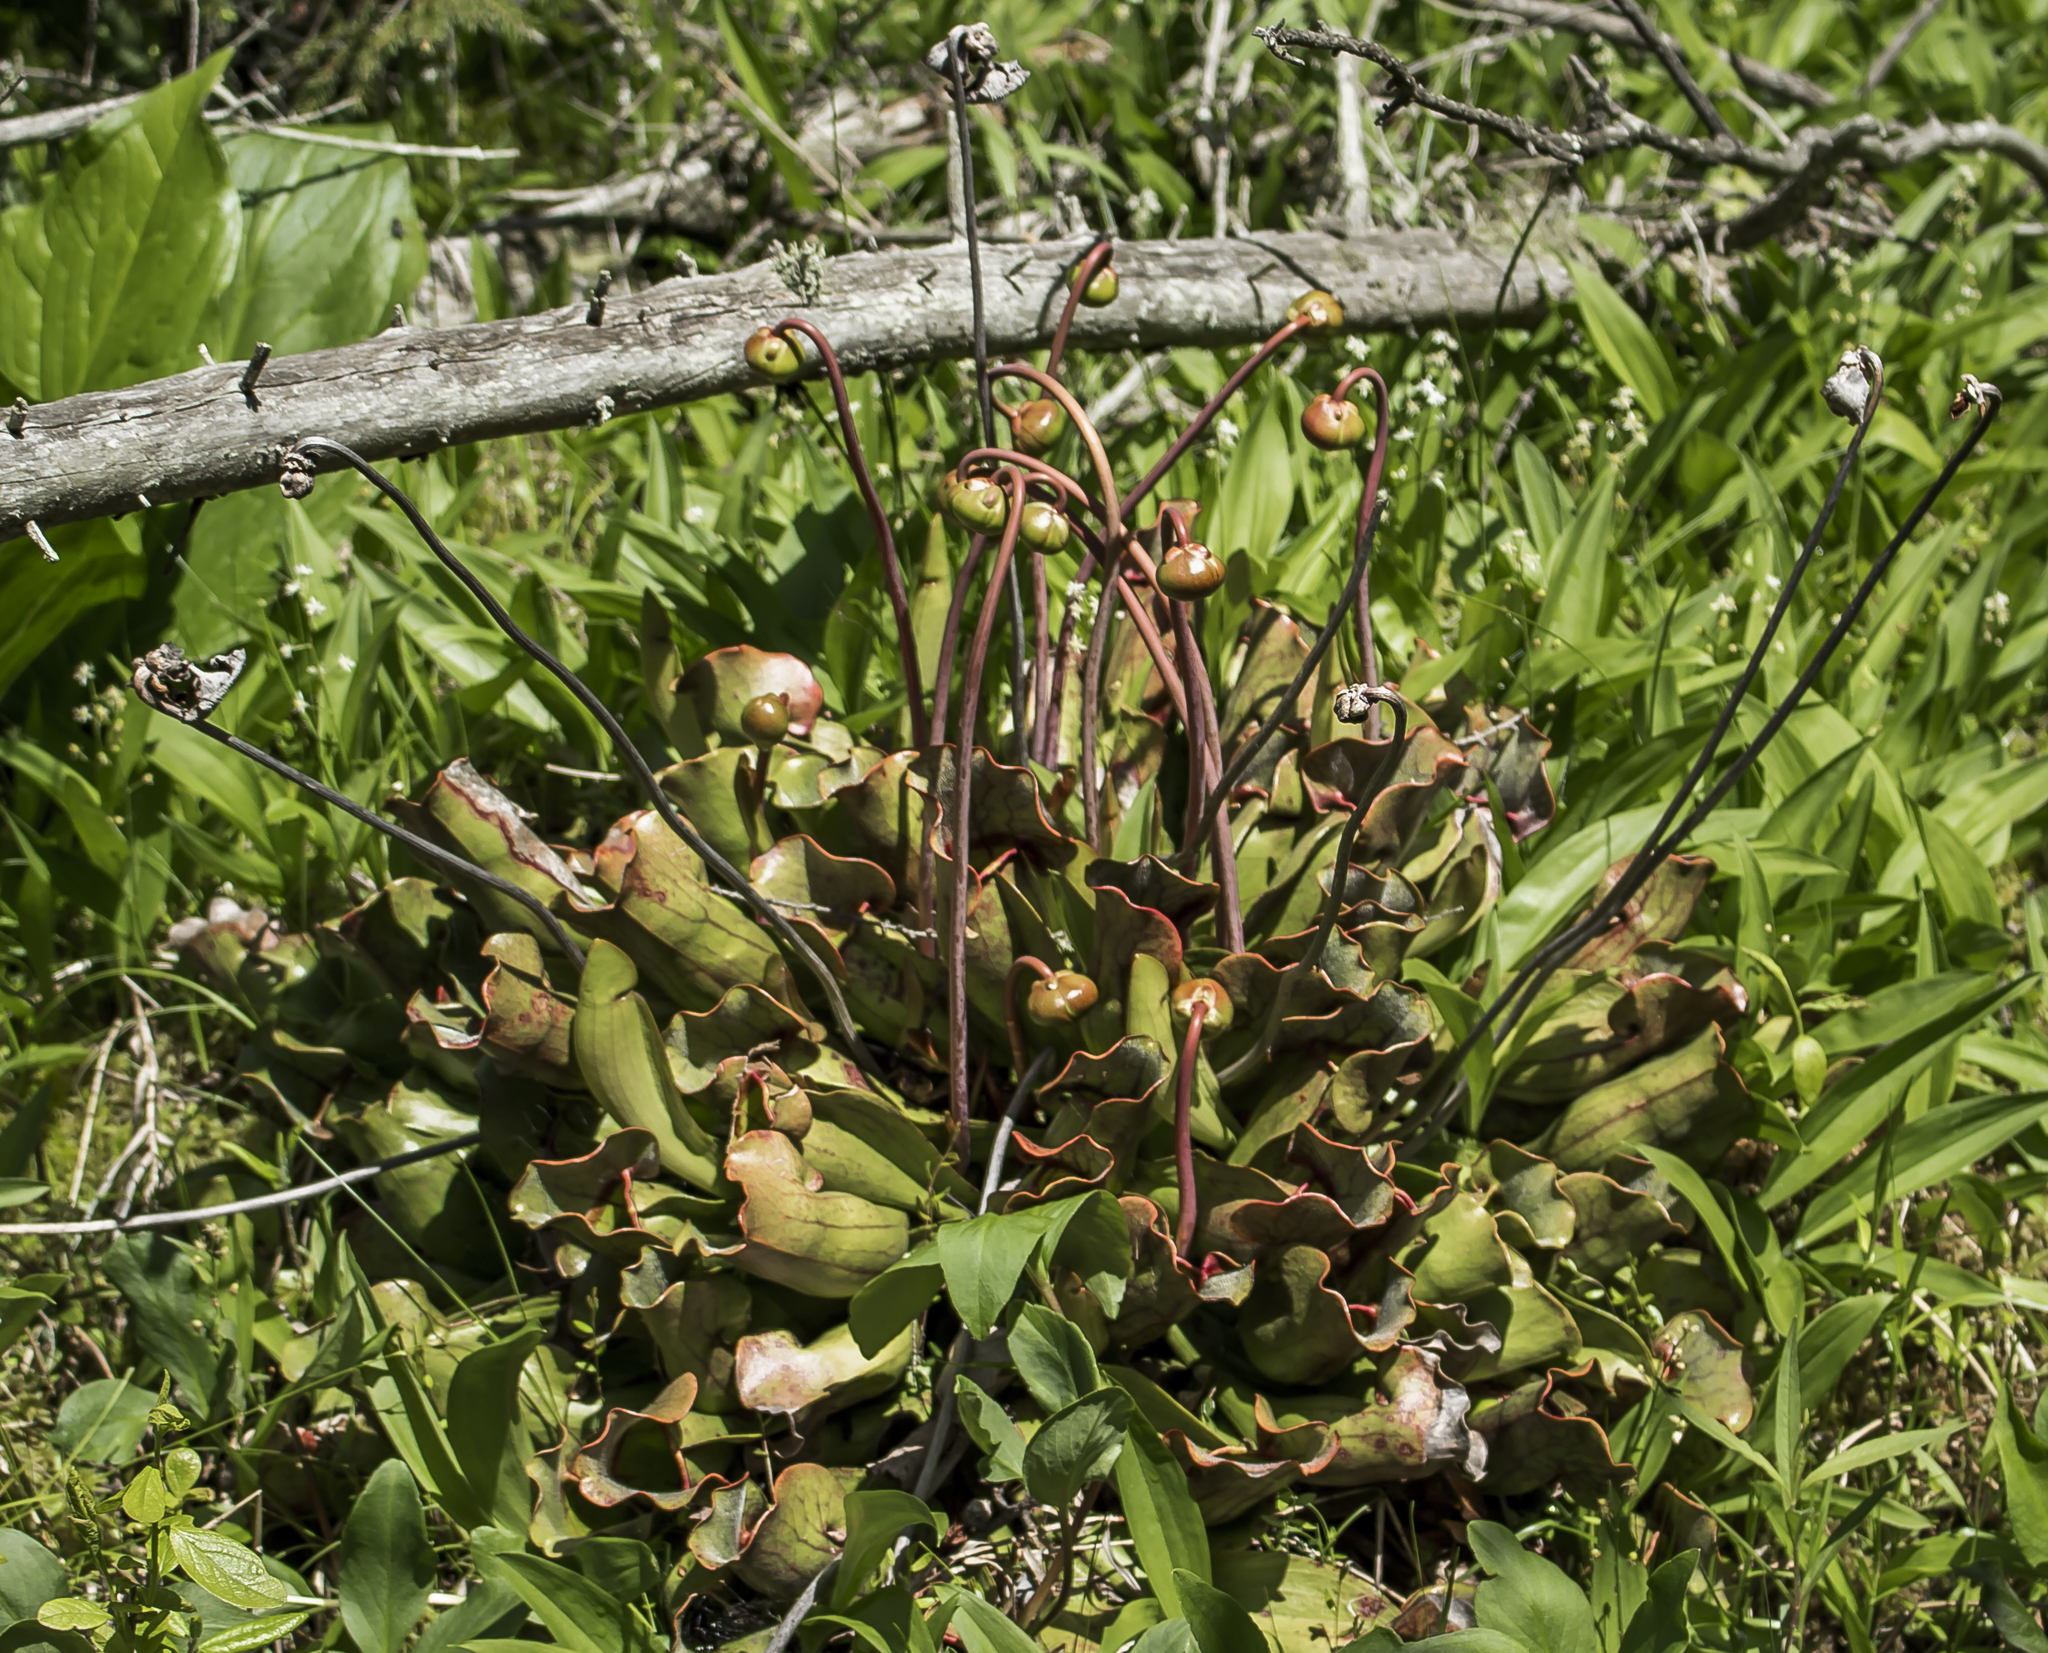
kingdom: Plantae
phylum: Tracheophyta
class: Magnoliopsida
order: Ericales
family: Sarraceniaceae
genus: Sarracenia
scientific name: Sarracenia purpurea
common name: Pitcherplant
